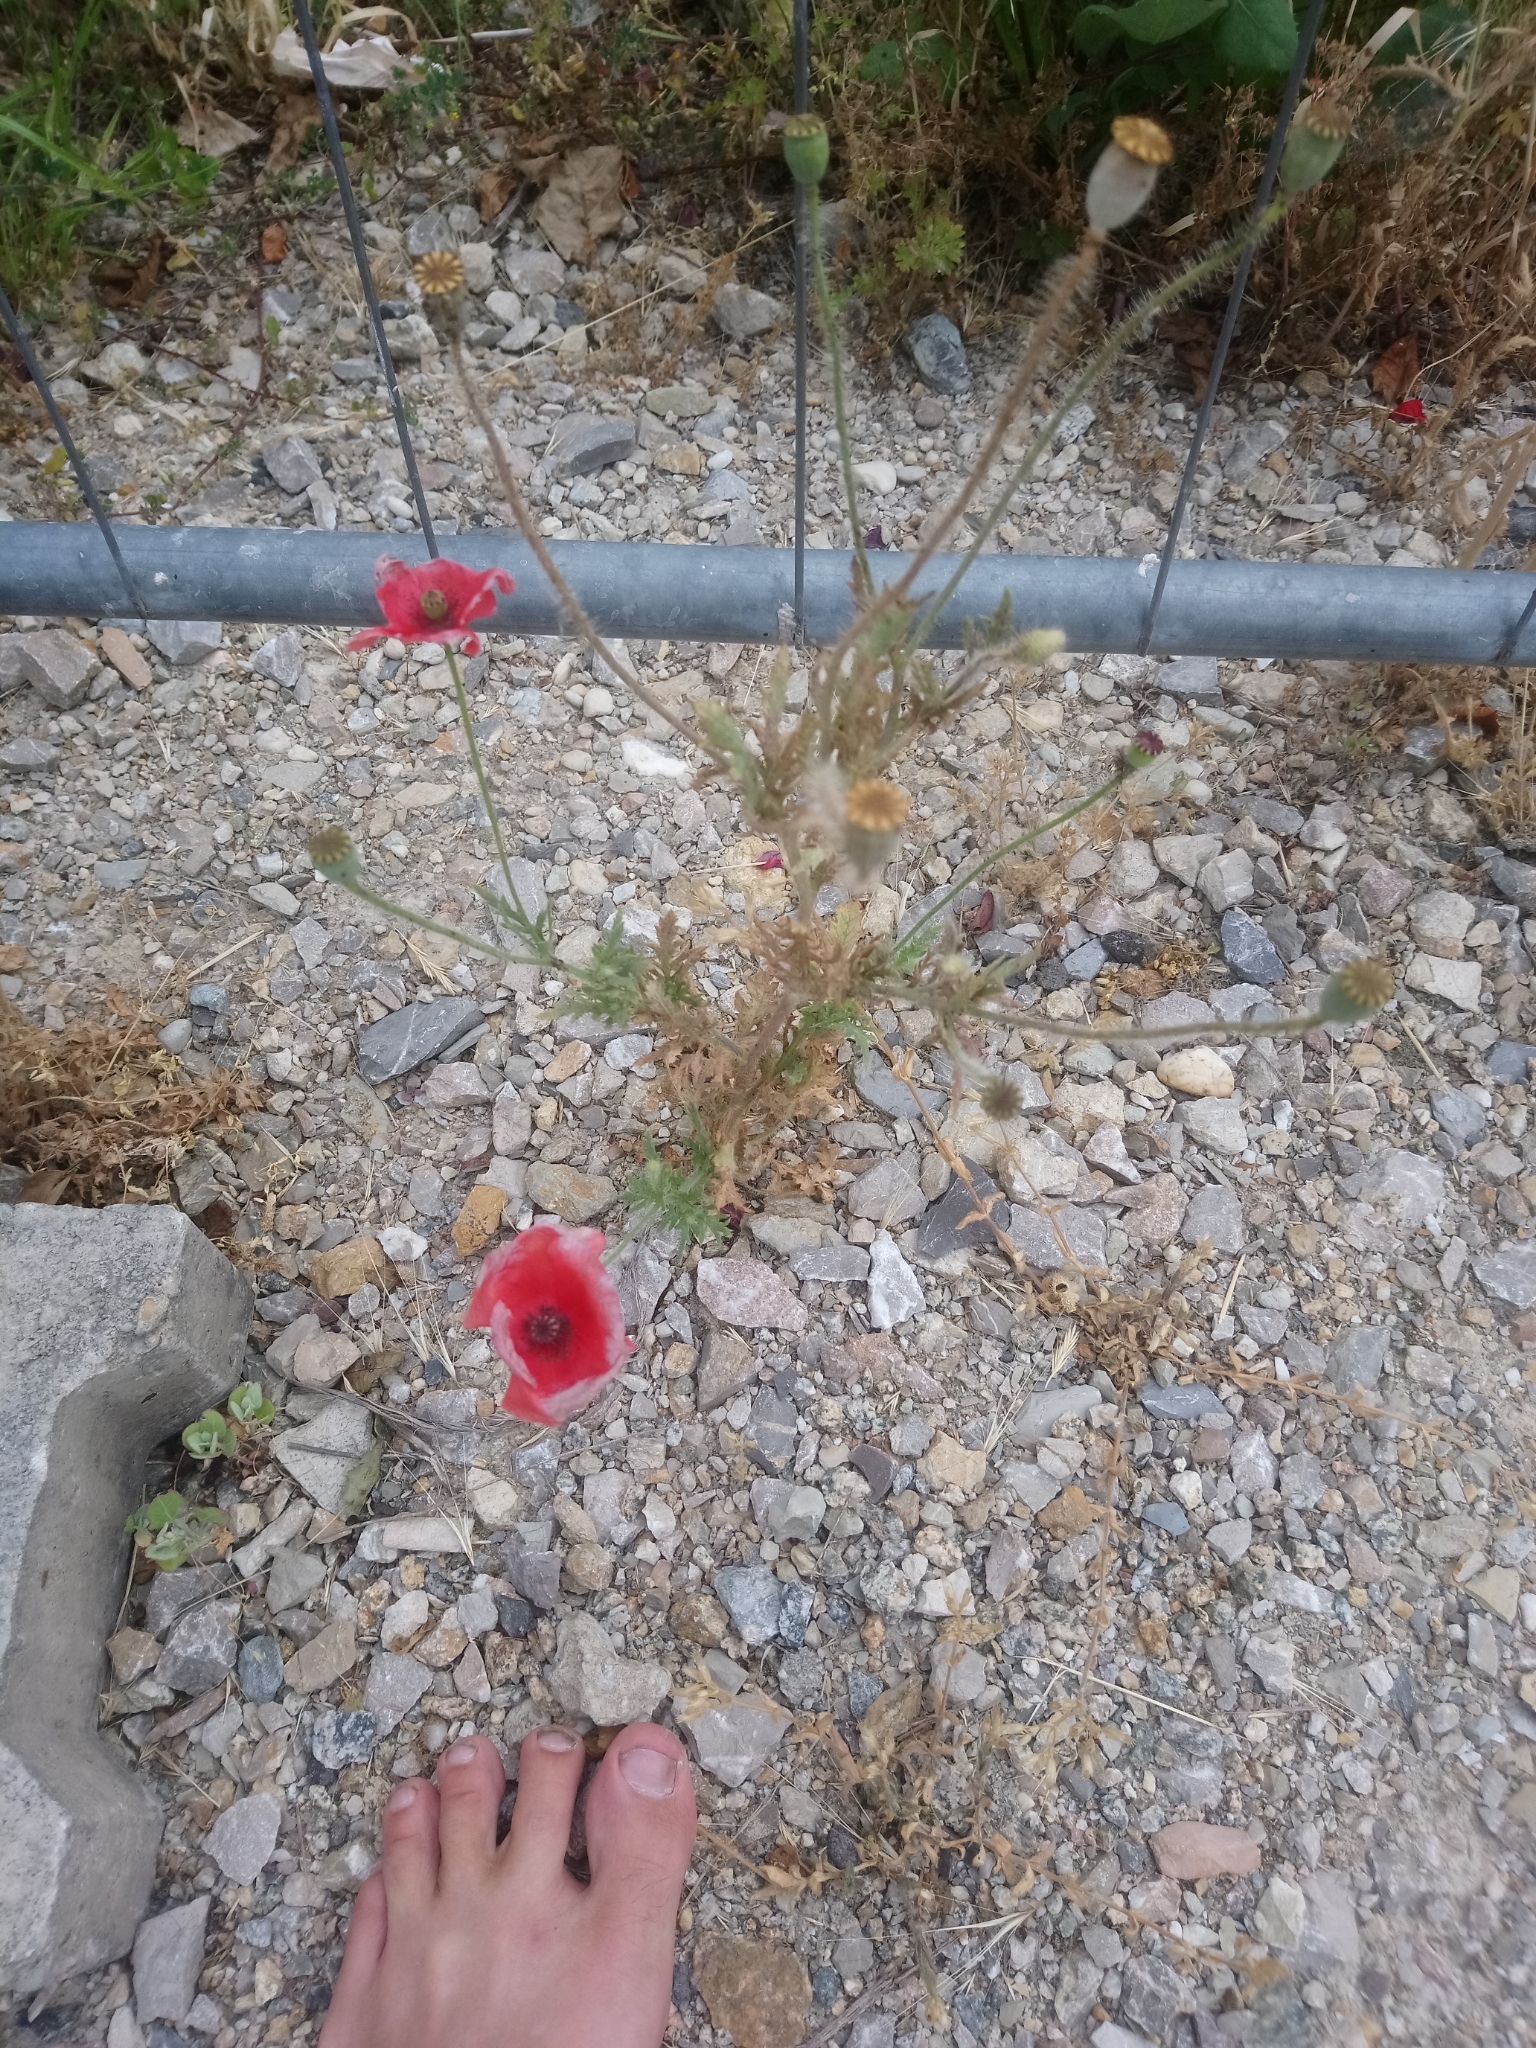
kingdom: Plantae
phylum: Tracheophyta
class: Magnoliopsida
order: Ranunculales
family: Papaveraceae
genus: Papaver
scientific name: Papaver rhoeas
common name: Corn poppy
